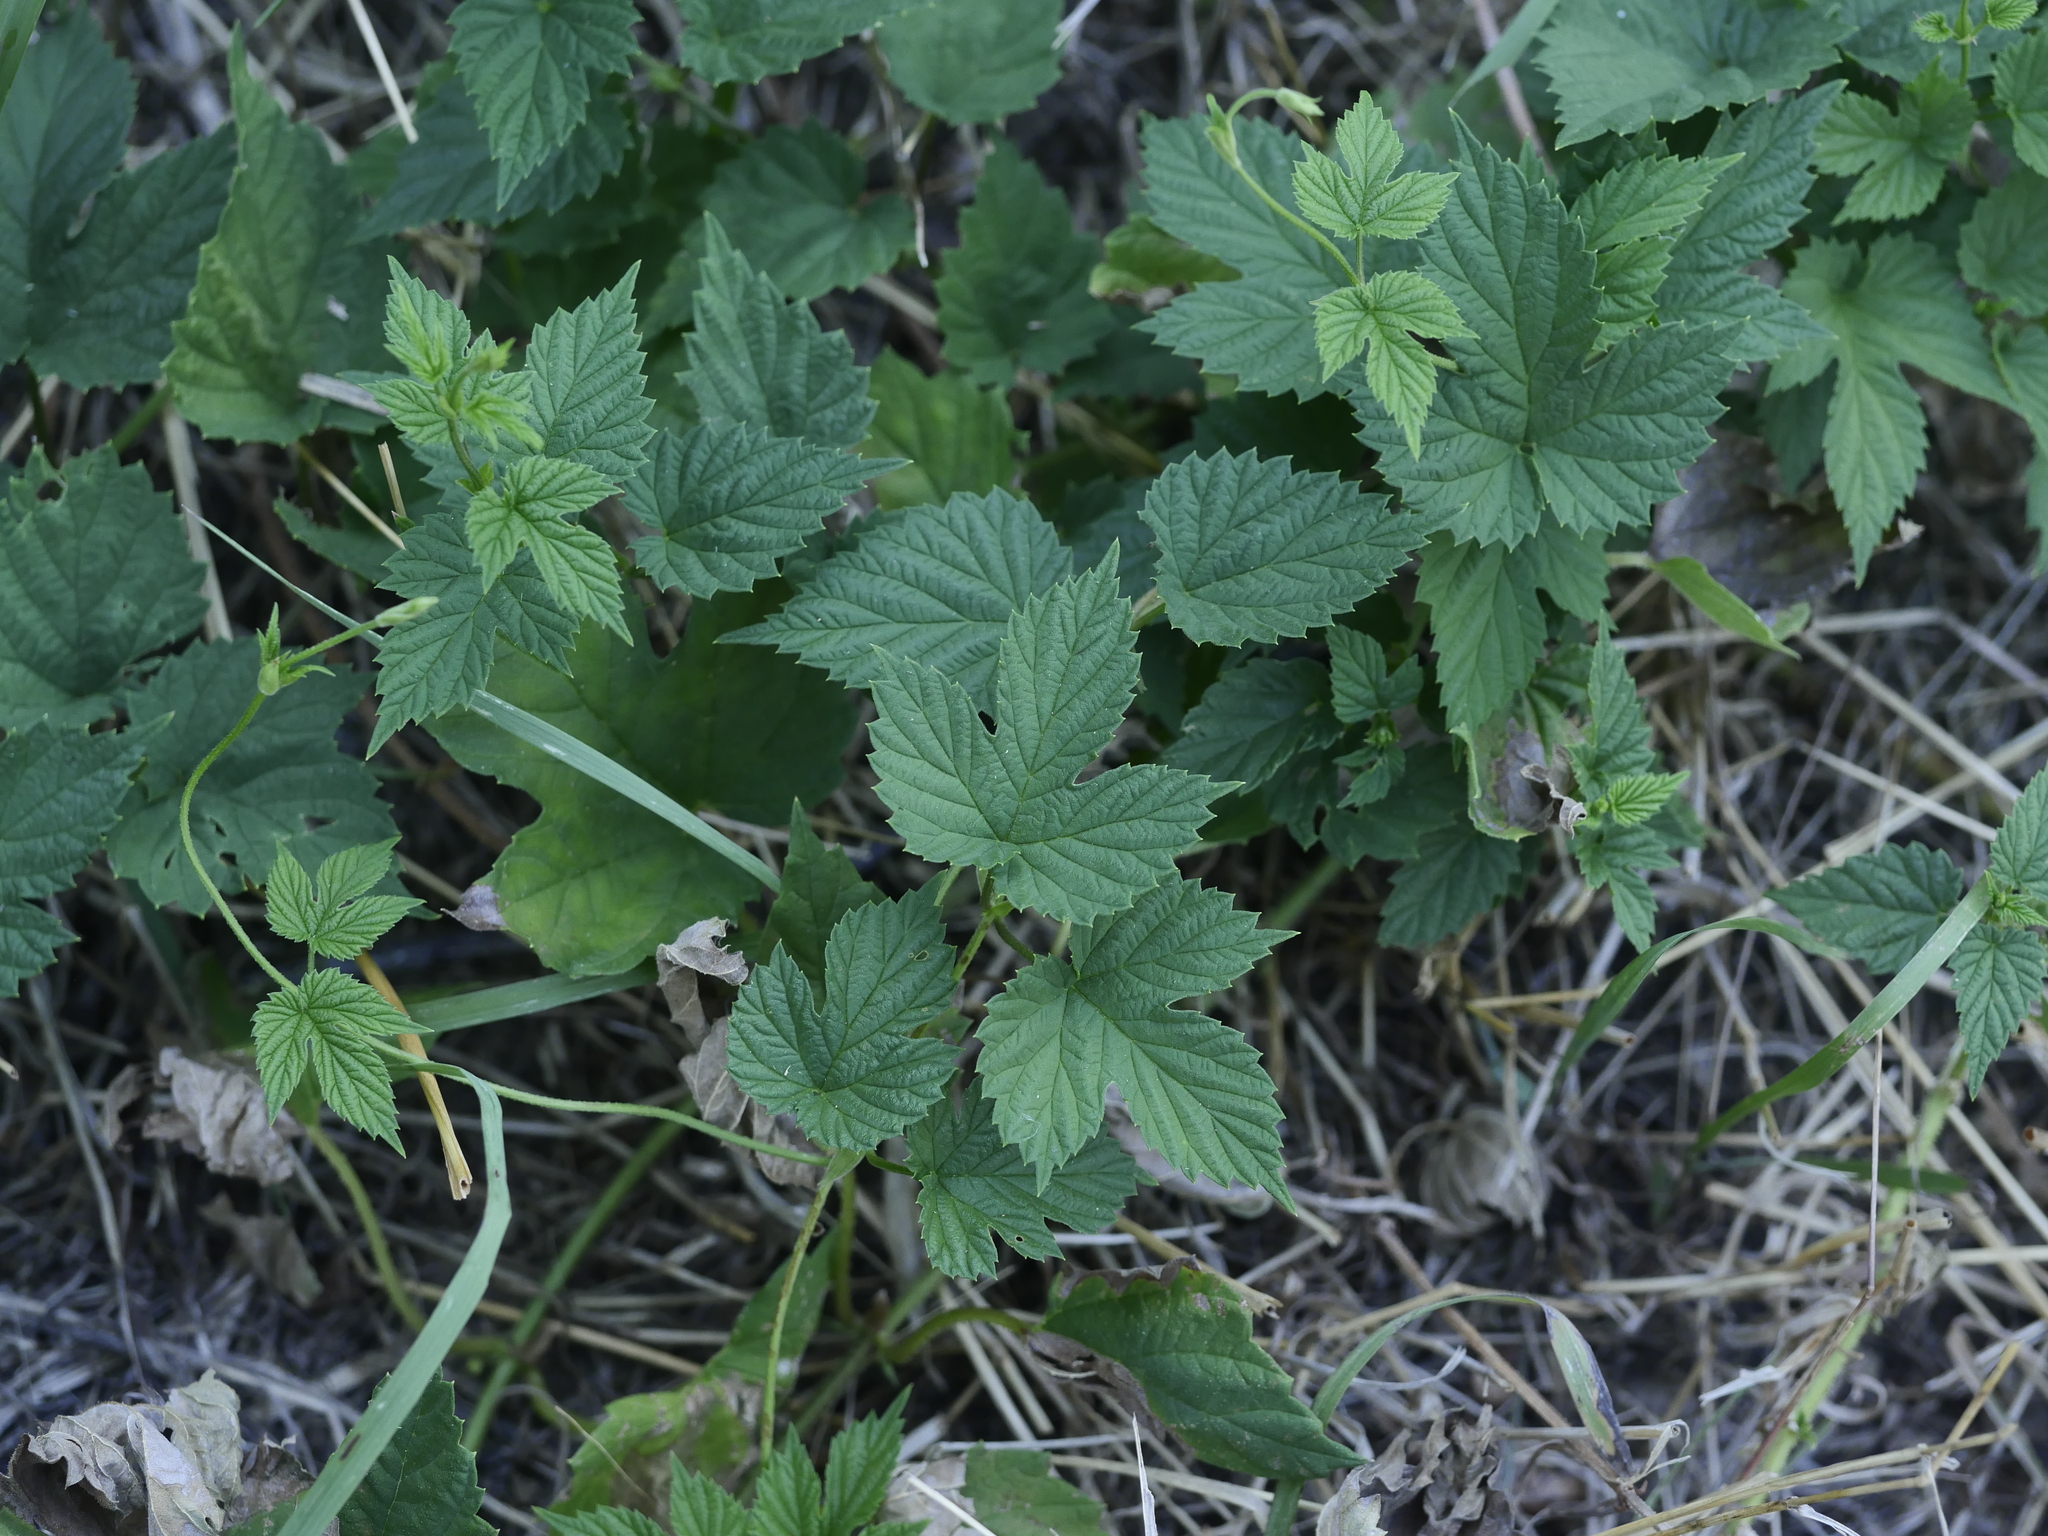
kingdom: Plantae
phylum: Tracheophyta
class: Magnoliopsida
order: Rosales
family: Cannabaceae
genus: Humulus
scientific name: Humulus lupulus
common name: Hop
